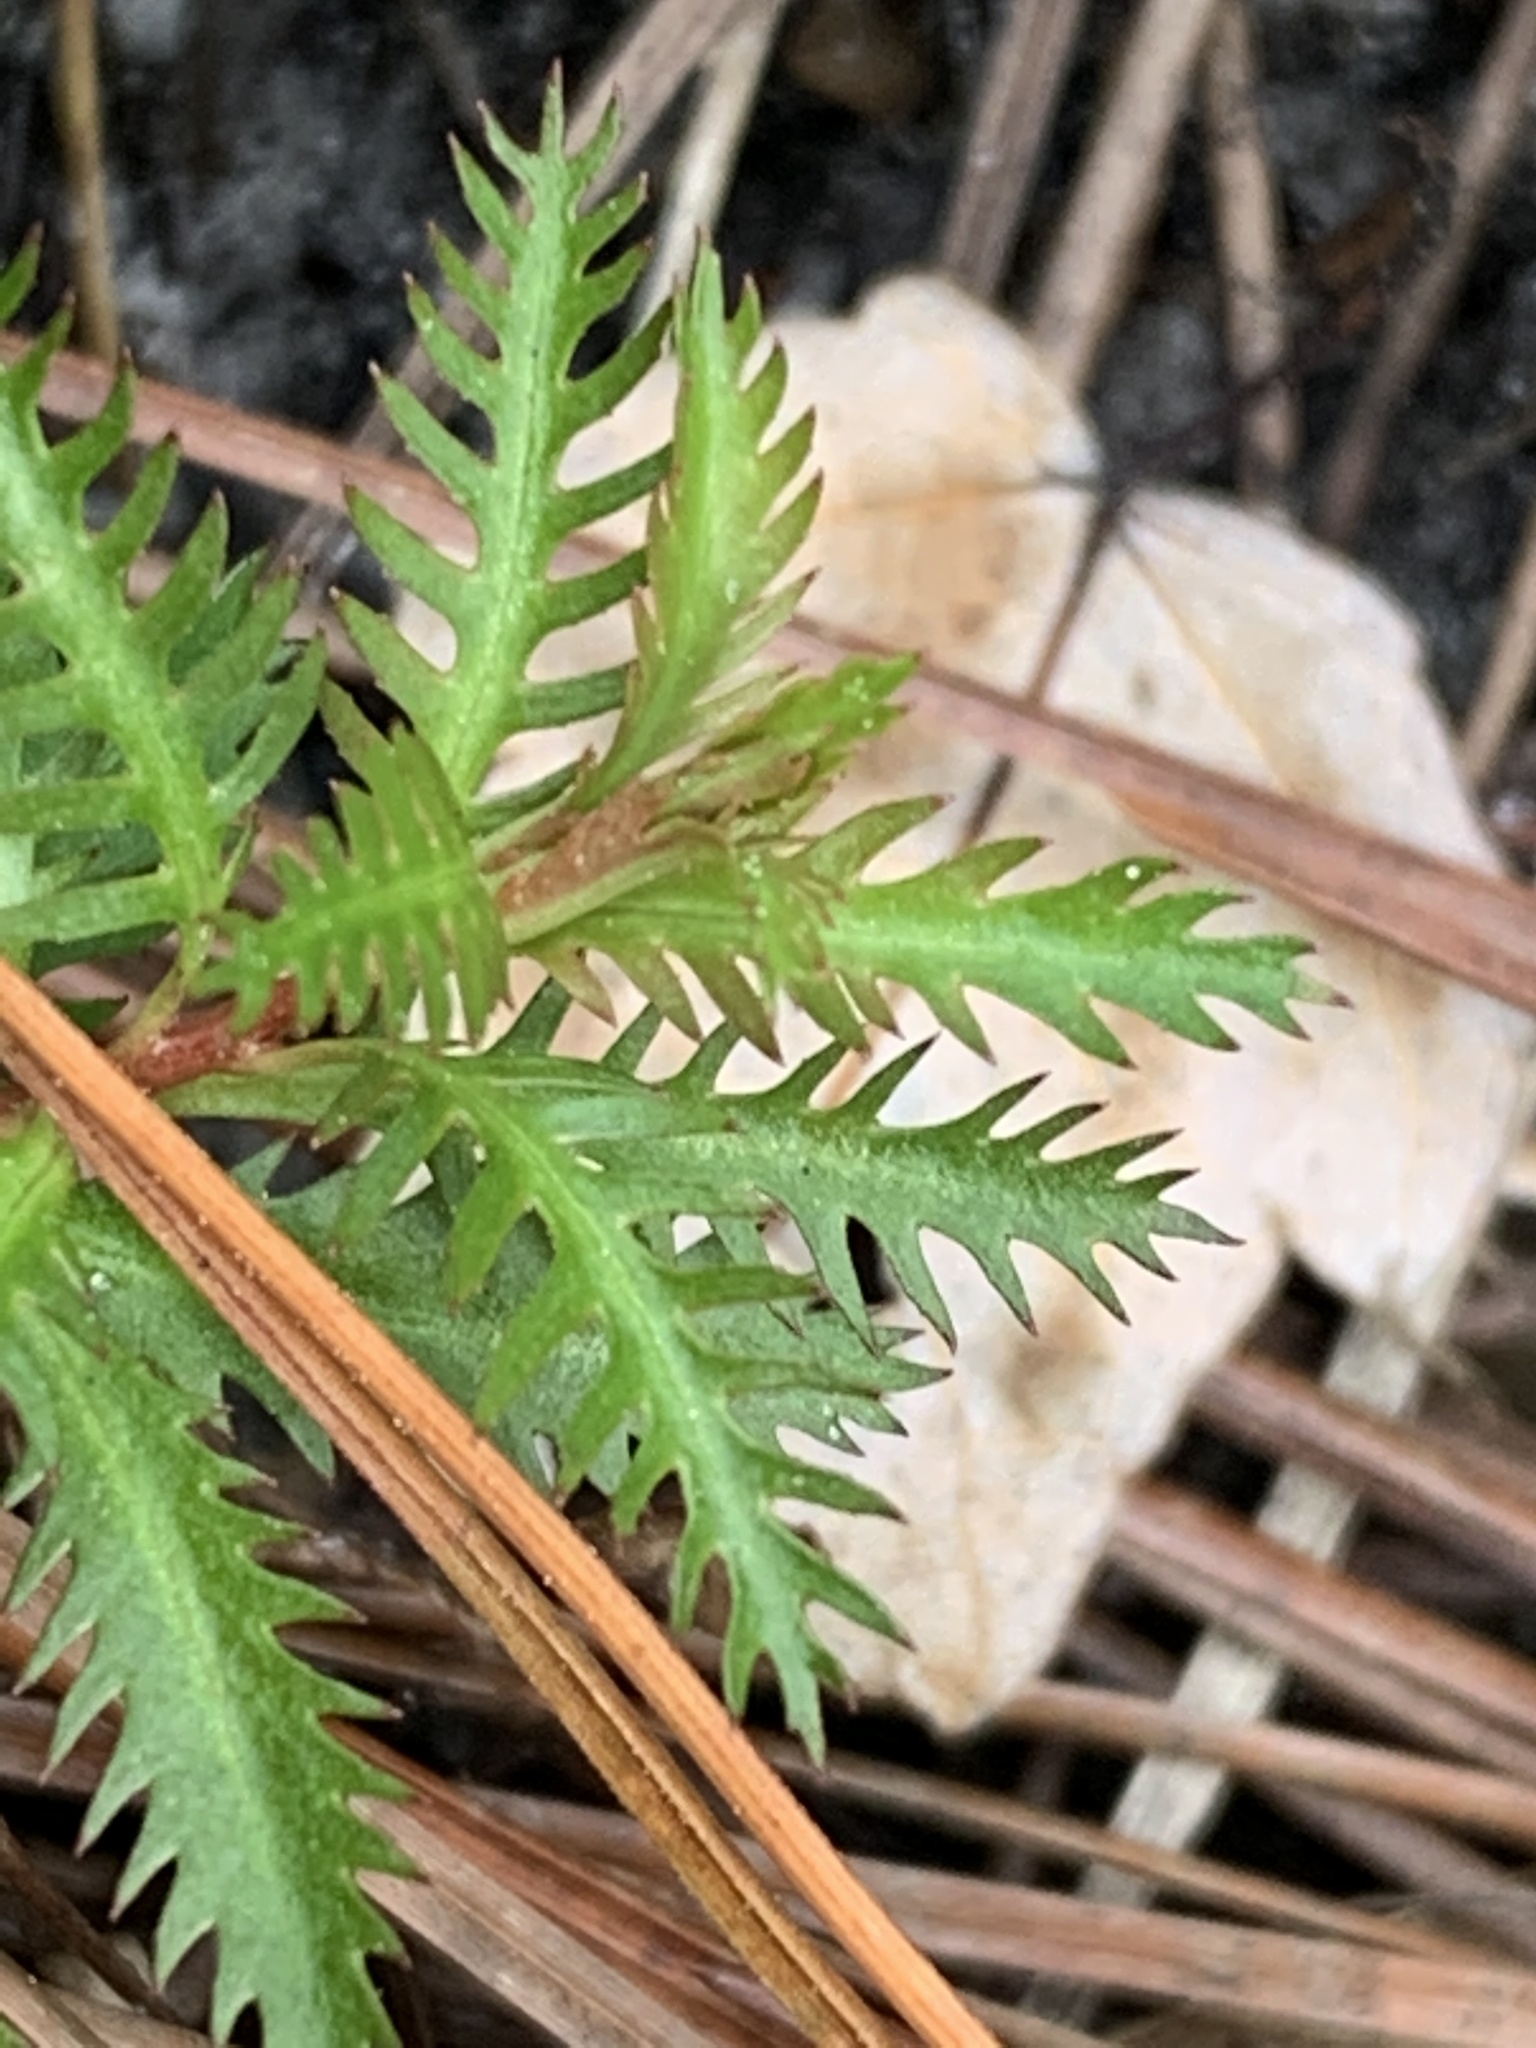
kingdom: Plantae
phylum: Tracheophyta
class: Magnoliopsida
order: Saxifragales
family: Haloragaceae
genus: Proserpinaca
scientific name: Proserpinaca pectinata
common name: Comb-leaved mermaidweed
